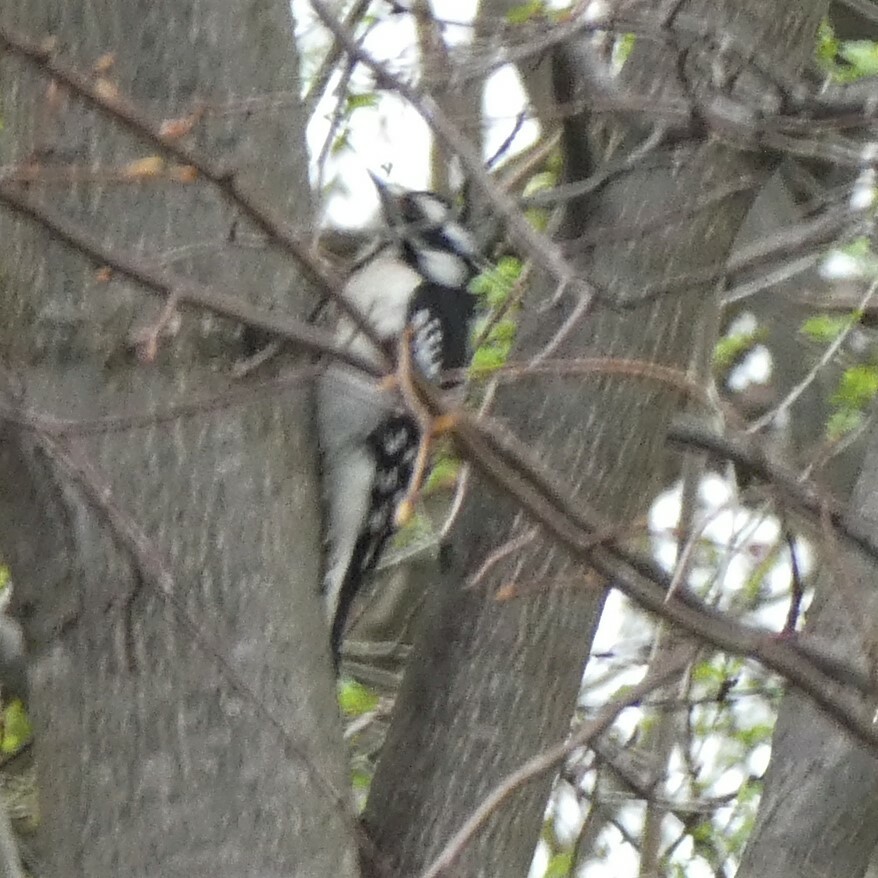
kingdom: Animalia
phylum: Chordata
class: Aves
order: Piciformes
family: Picidae
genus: Dryobates
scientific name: Dryobates pubescens
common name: Downy woodpecker
